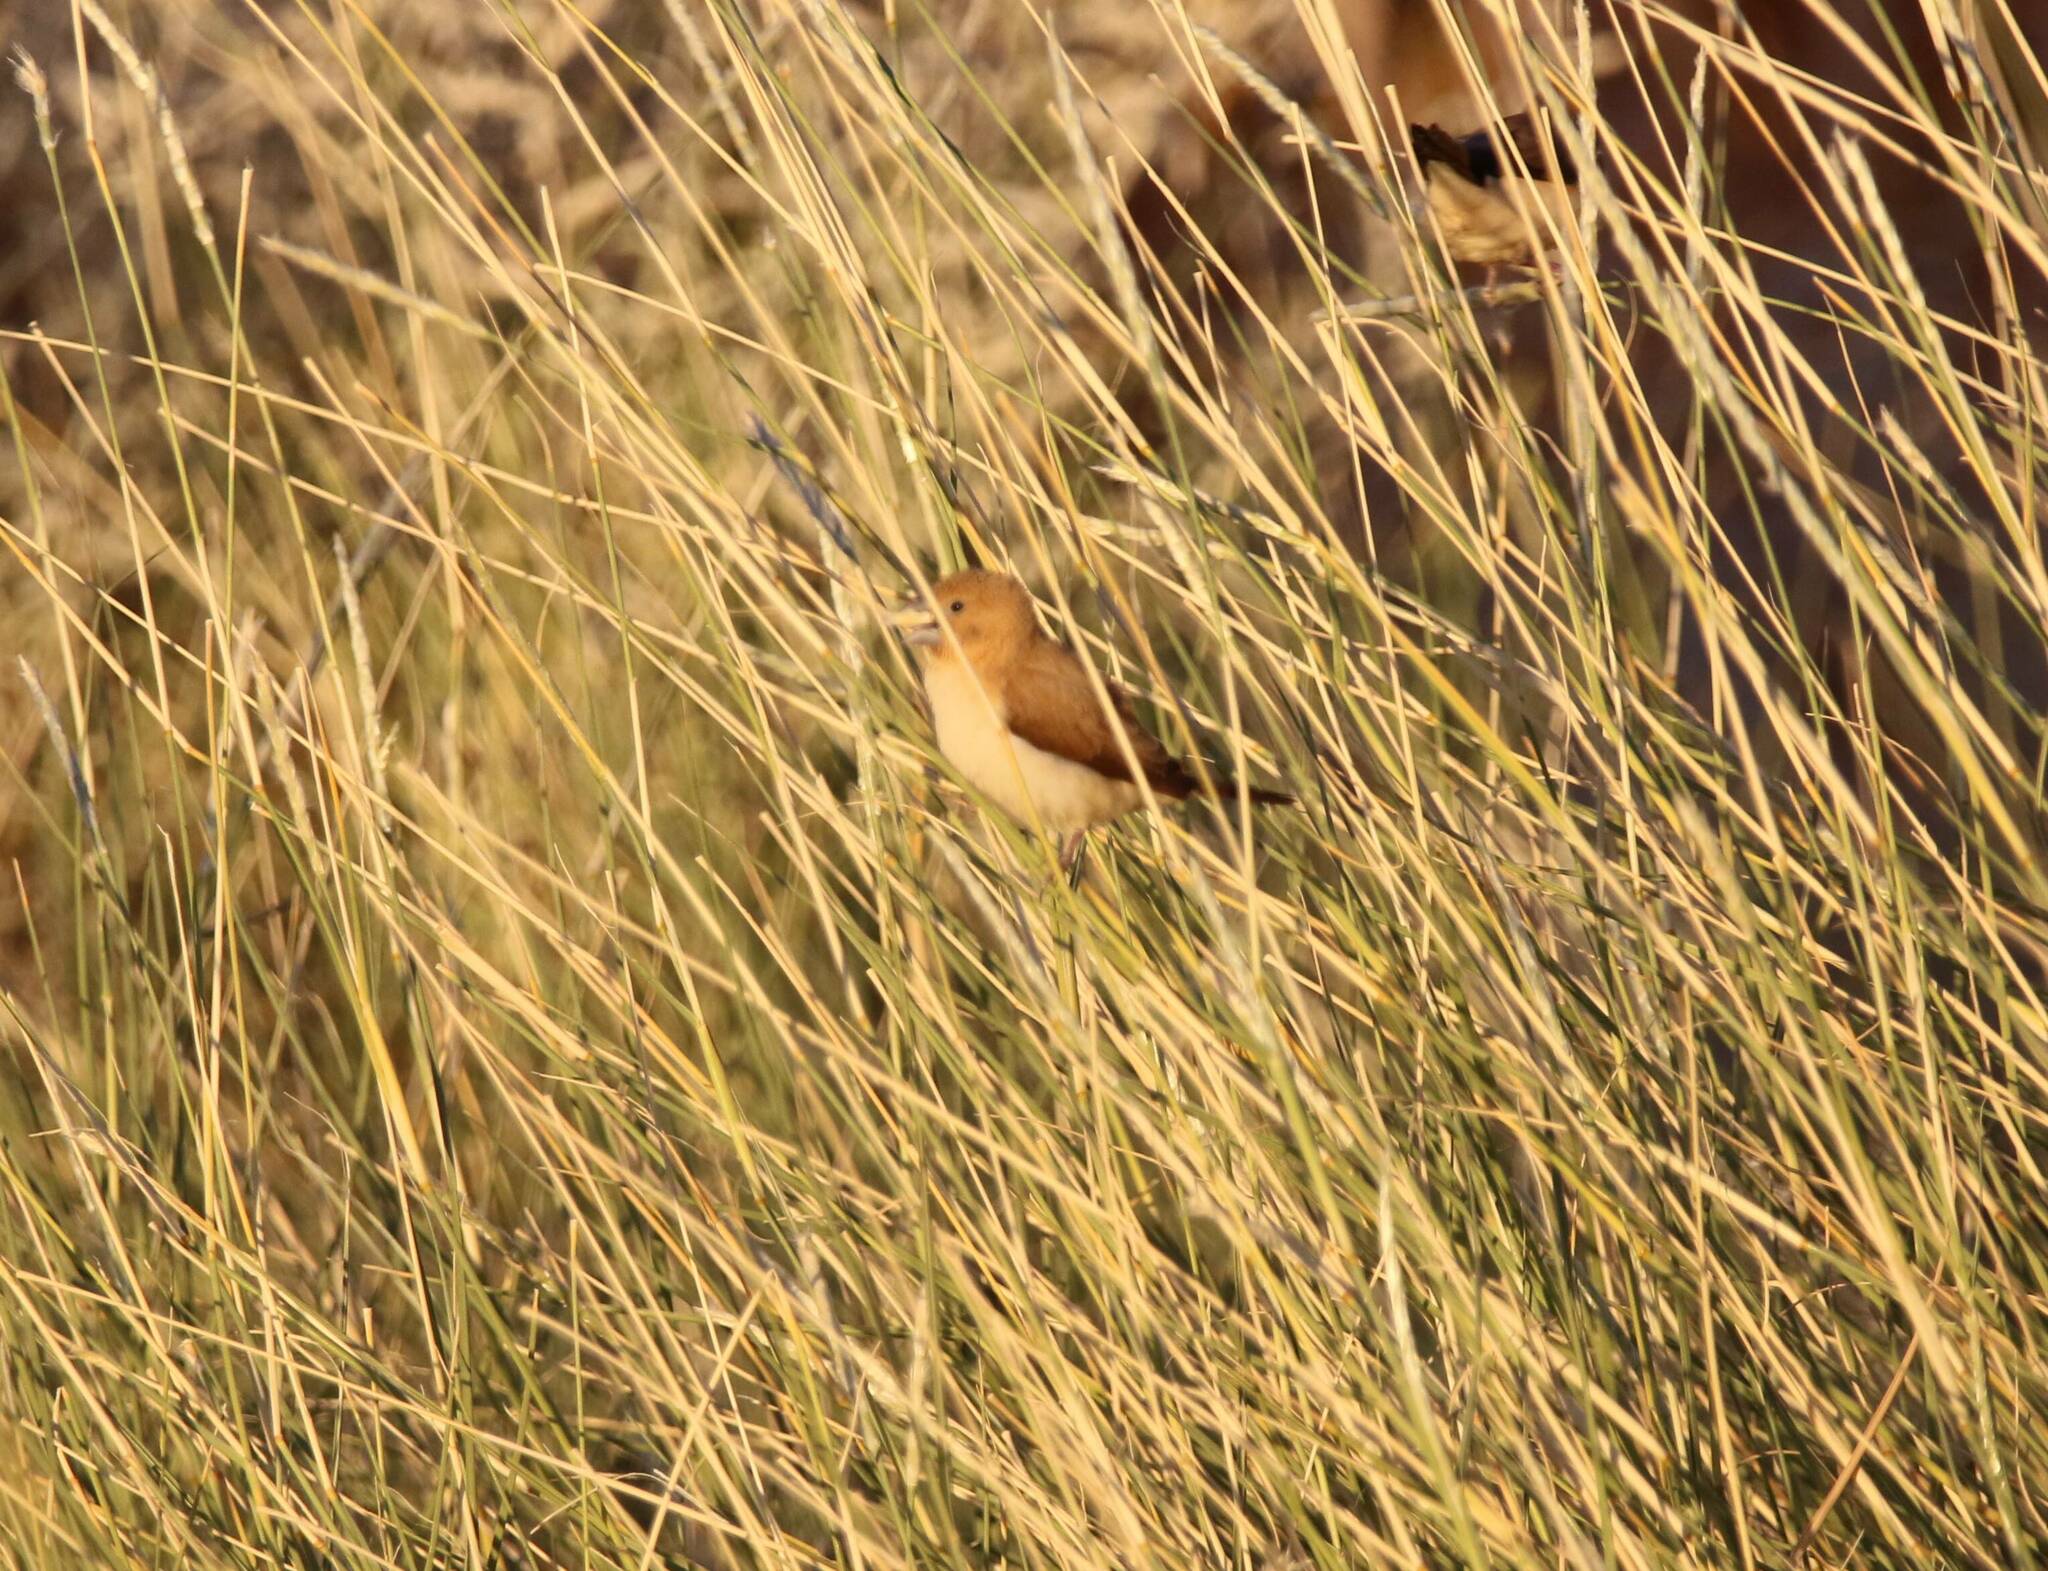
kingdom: Animalia
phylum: Chordata
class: Aves
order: Passeriformes
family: Estrildidae
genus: Euodice
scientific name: Euodice cantans
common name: African silverbill
